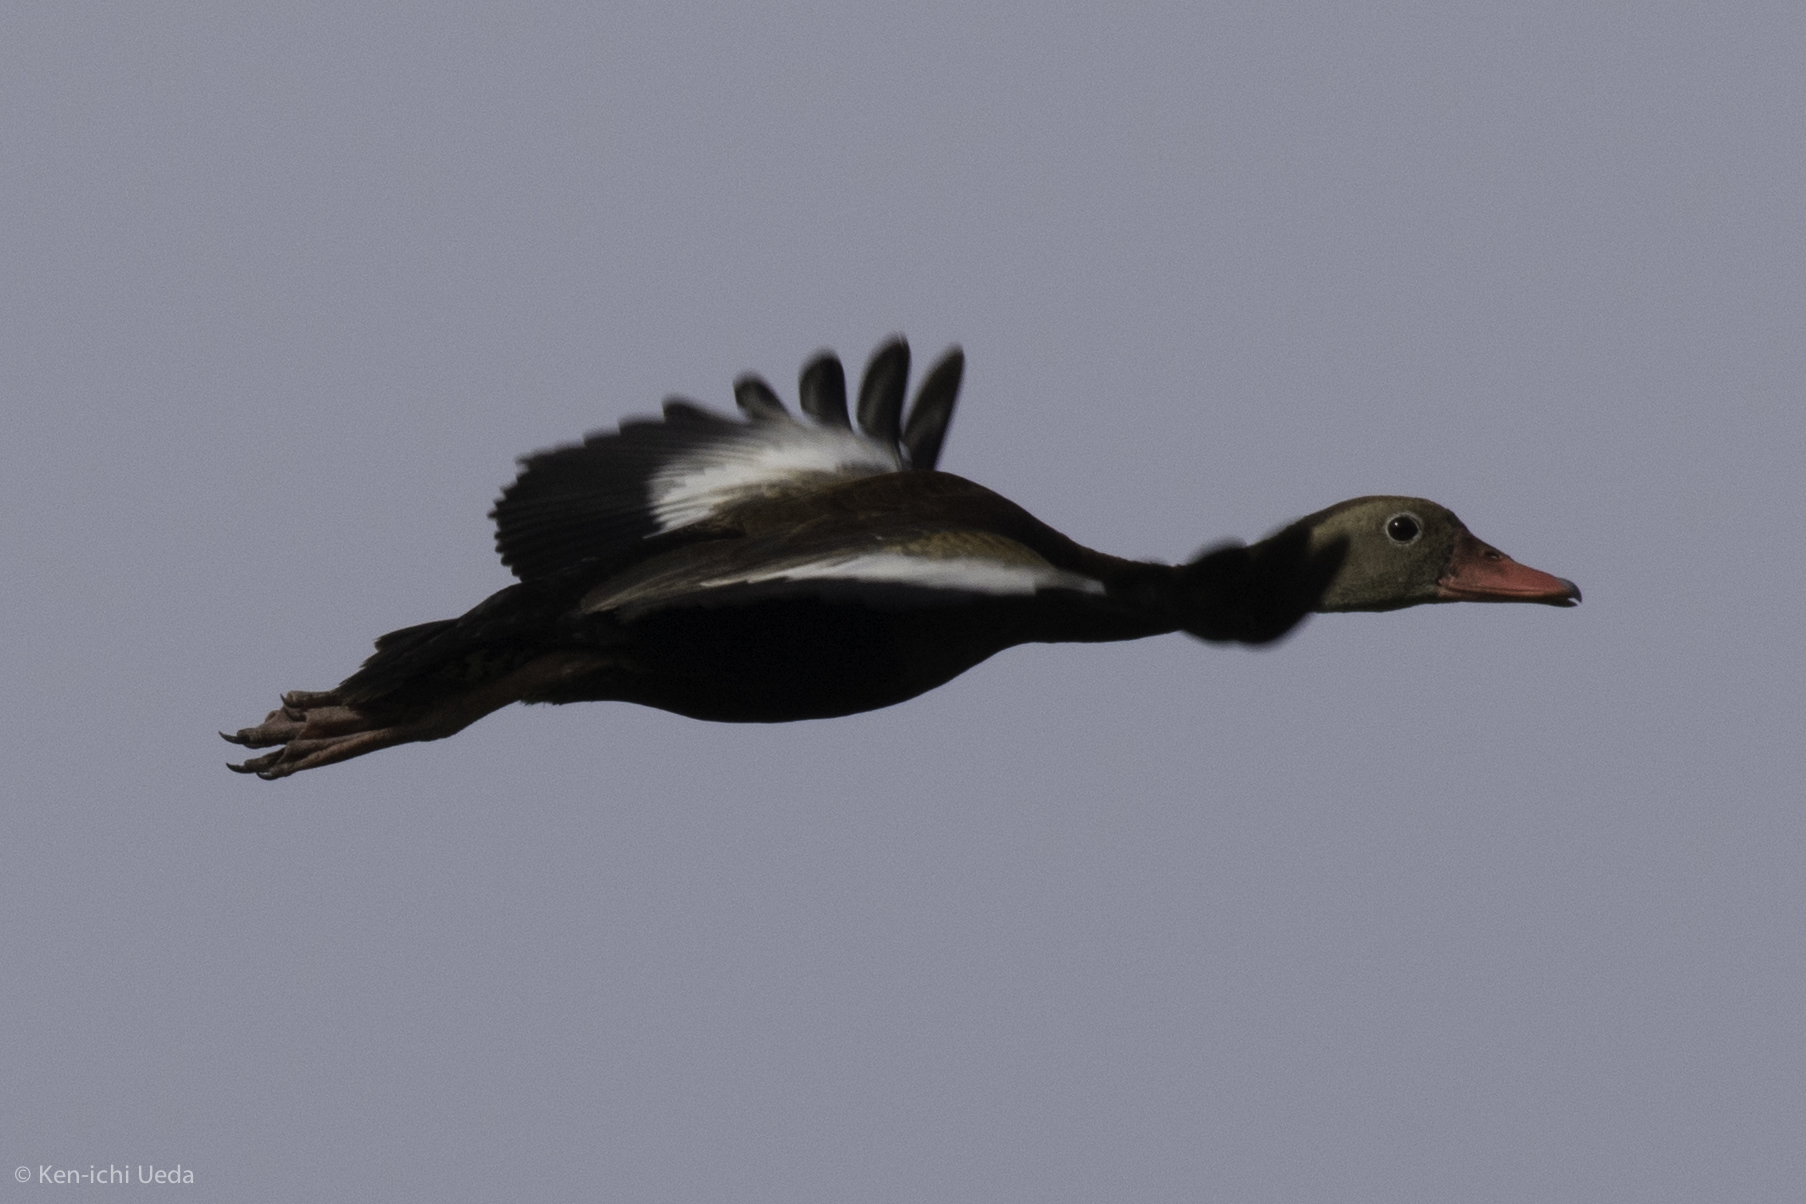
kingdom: Animalia
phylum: Chordata
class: Aves
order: Anseriformes
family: Anatidae
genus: Dendrocygna
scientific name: Dendrocygna autumnalis
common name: Black-bellied whistling duck
